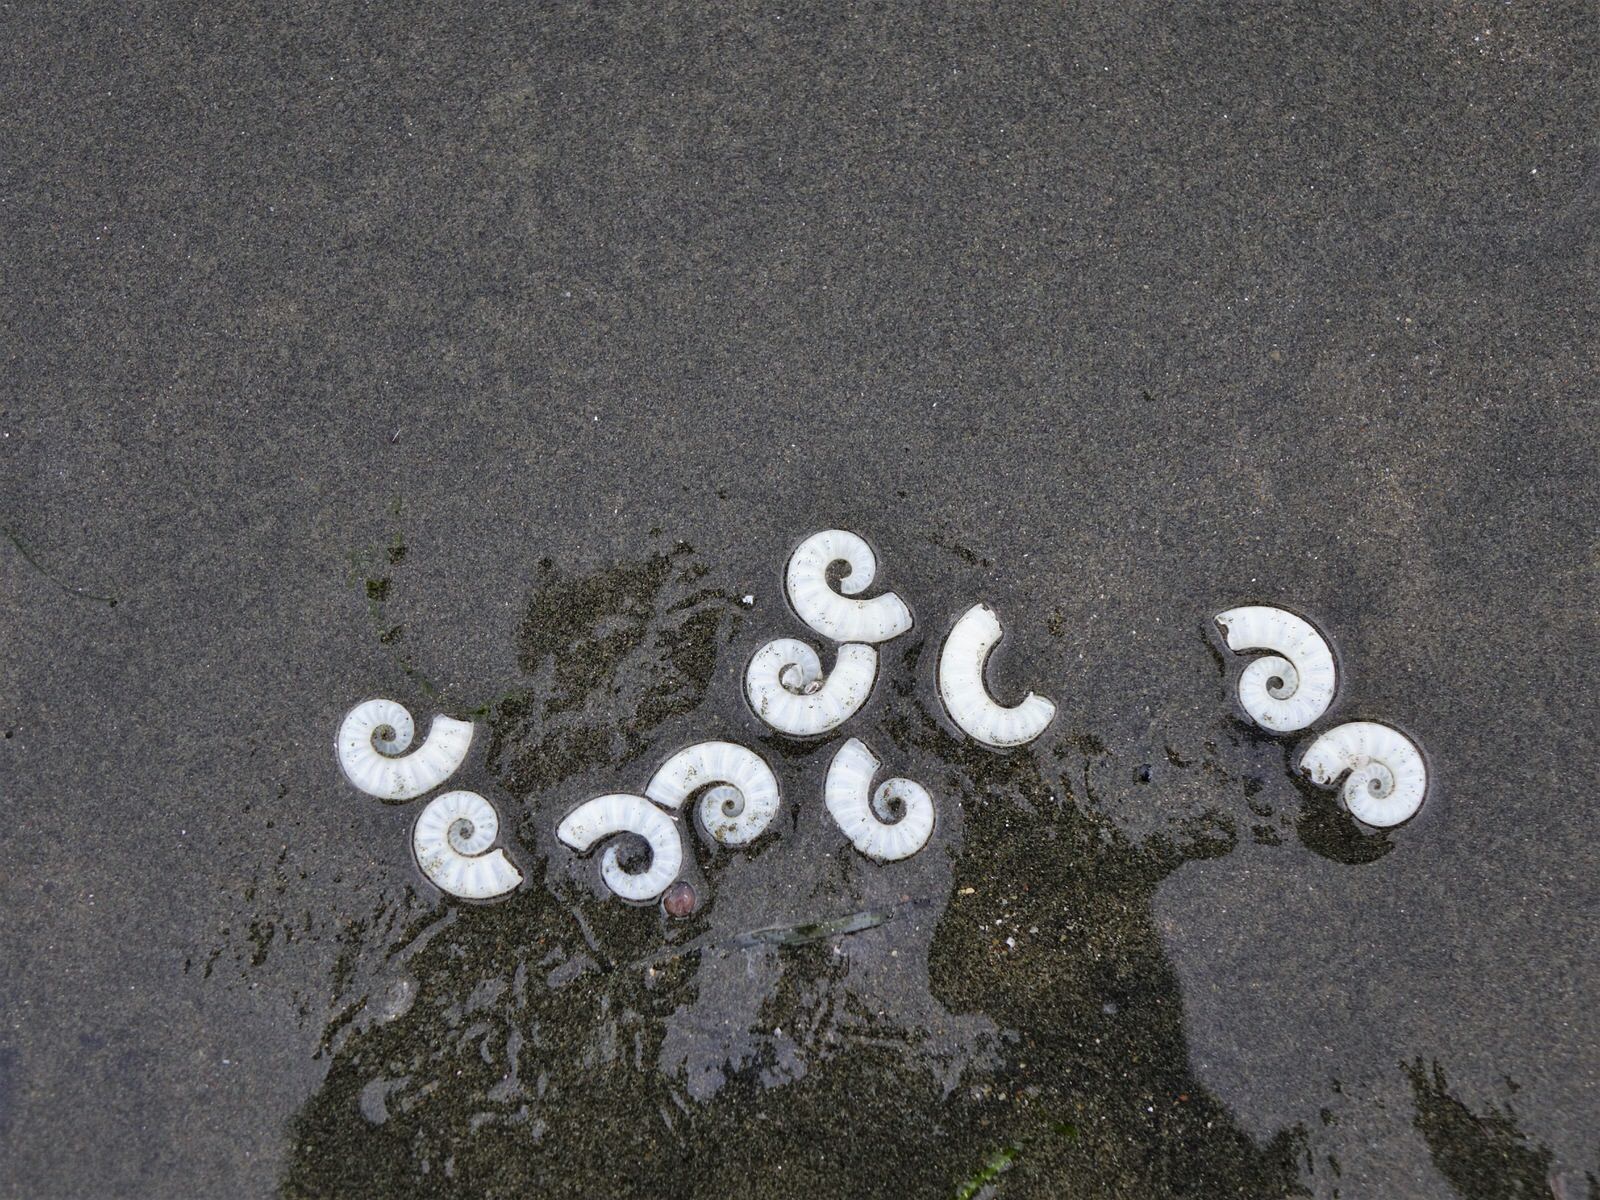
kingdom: Animalia
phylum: Mollusca
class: Cephalopoda
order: Spirulida
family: Spirulidae
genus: Spirula
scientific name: Spirula spirula
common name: Ram's horn squid
